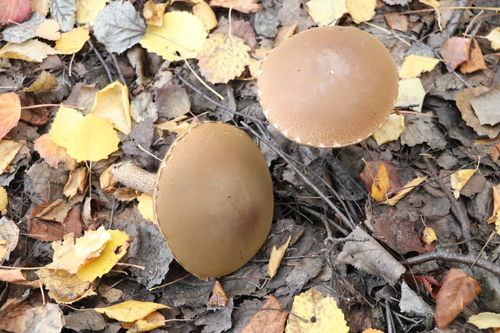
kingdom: Fungi
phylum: Basidiomycota
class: Agaricomycetes
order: Boletales
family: Boletaceae
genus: Leccinum
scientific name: Leccinum scabrum
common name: Blushing bolete
